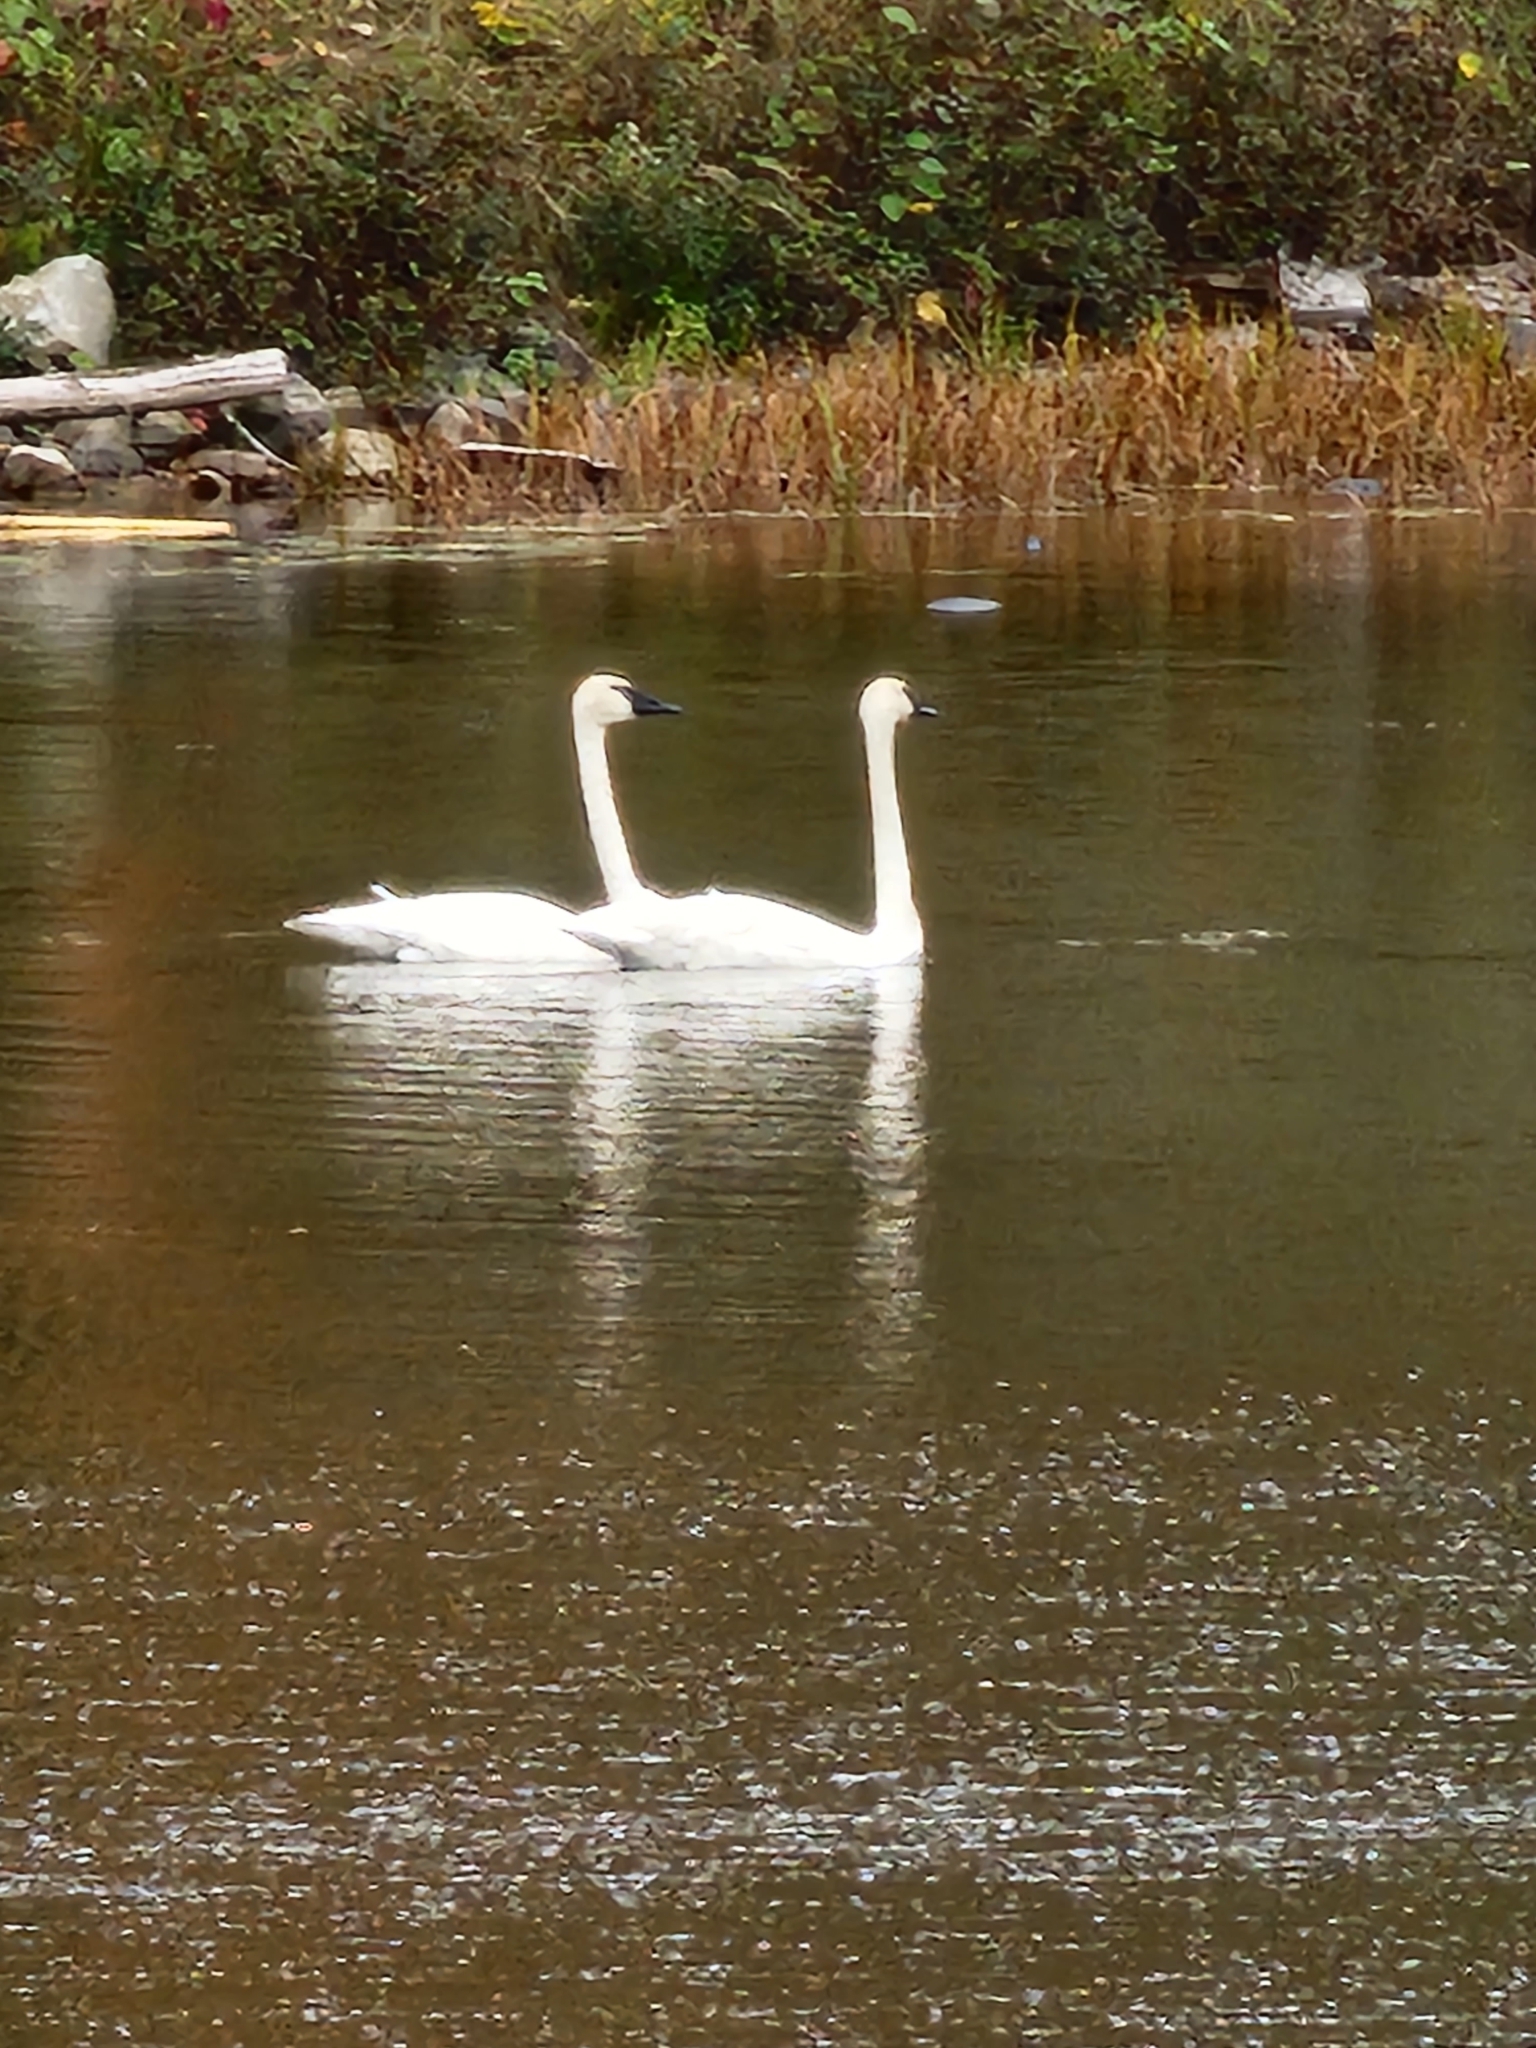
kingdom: Animalia
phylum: Chordata
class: Aves
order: Anseriformes
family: Anatidae
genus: Cygnus
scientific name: Cygnus buccinator
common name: Trumpeter swan
